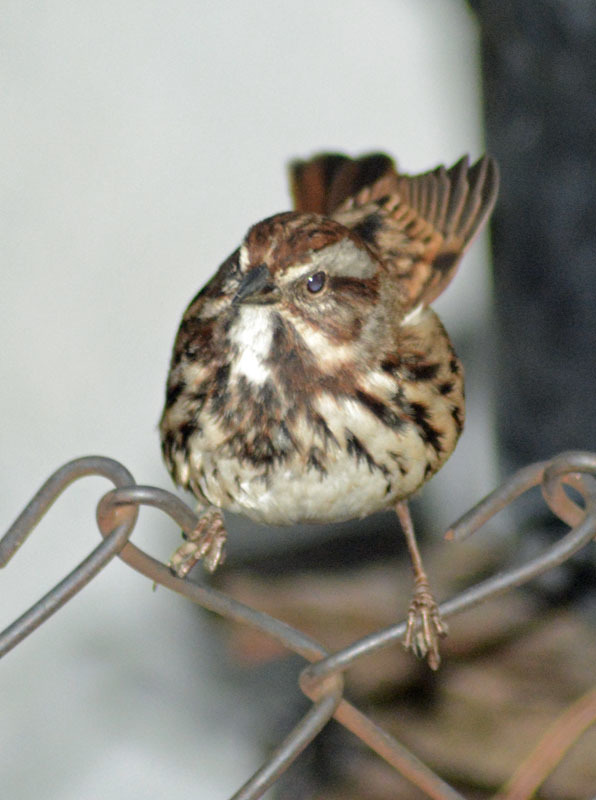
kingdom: Animalia
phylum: Chordata
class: Aves
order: Passeriformes
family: Passerellidae
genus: Melospiza
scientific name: Melospiza melodia
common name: Song sparrow
